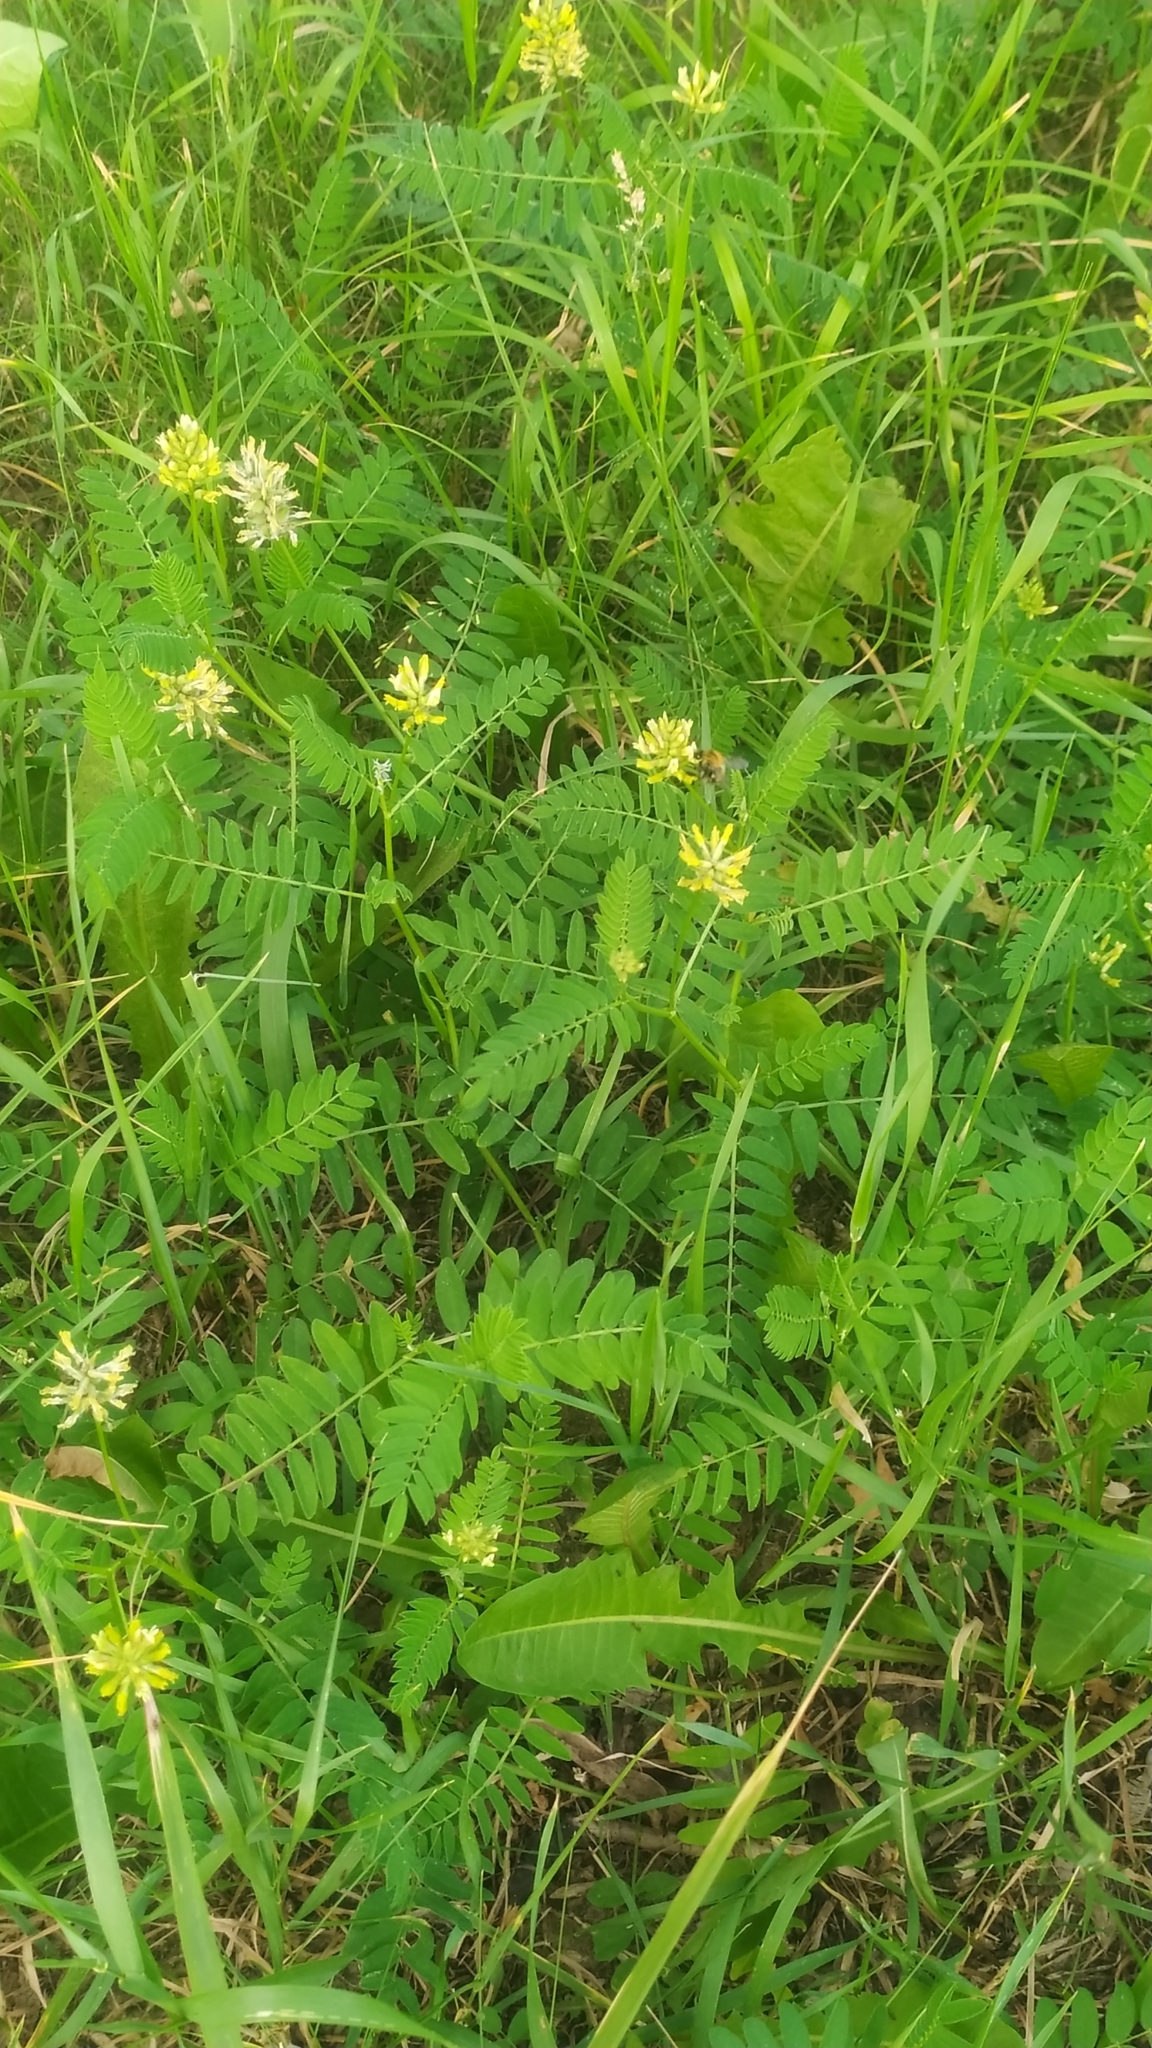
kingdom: Plantae
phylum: Tracheophyta
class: Magnoliopsida
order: Fabales
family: Fabaceae
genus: Astragalus
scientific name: Astragalus cicer
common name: Chick-pea milk-vetch
